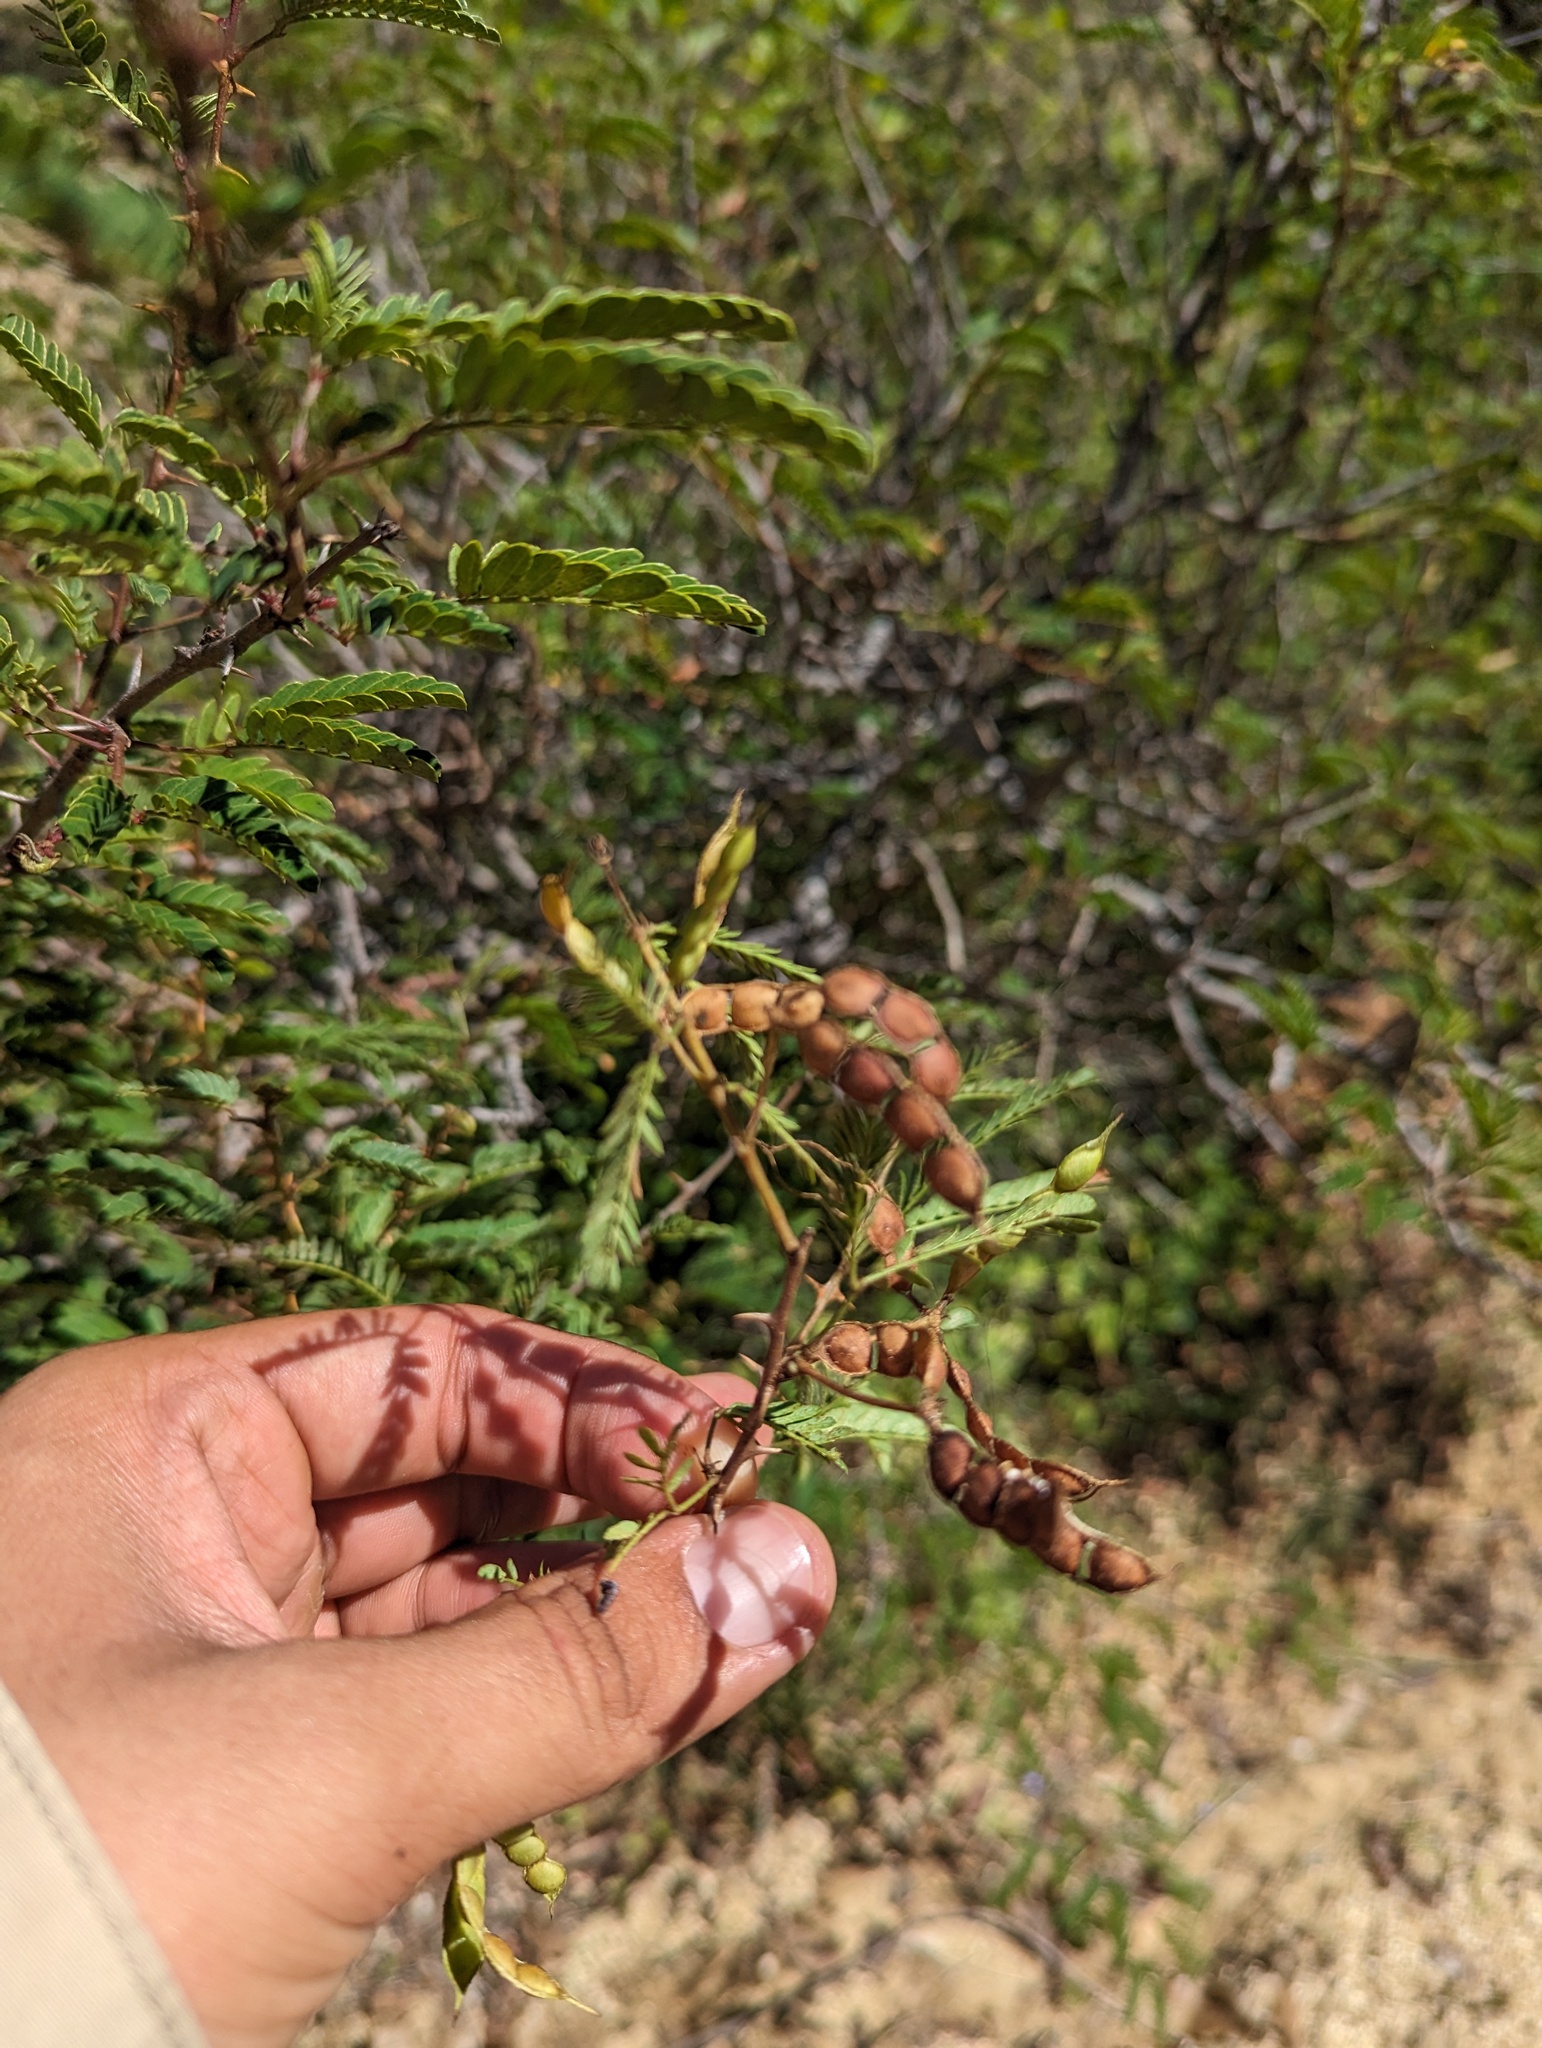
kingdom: Plantae
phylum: Tracheophyta
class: Magnoliopsida
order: Fabales
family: Fabaceae
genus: Mimosa
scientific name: Mimosa tricephala
